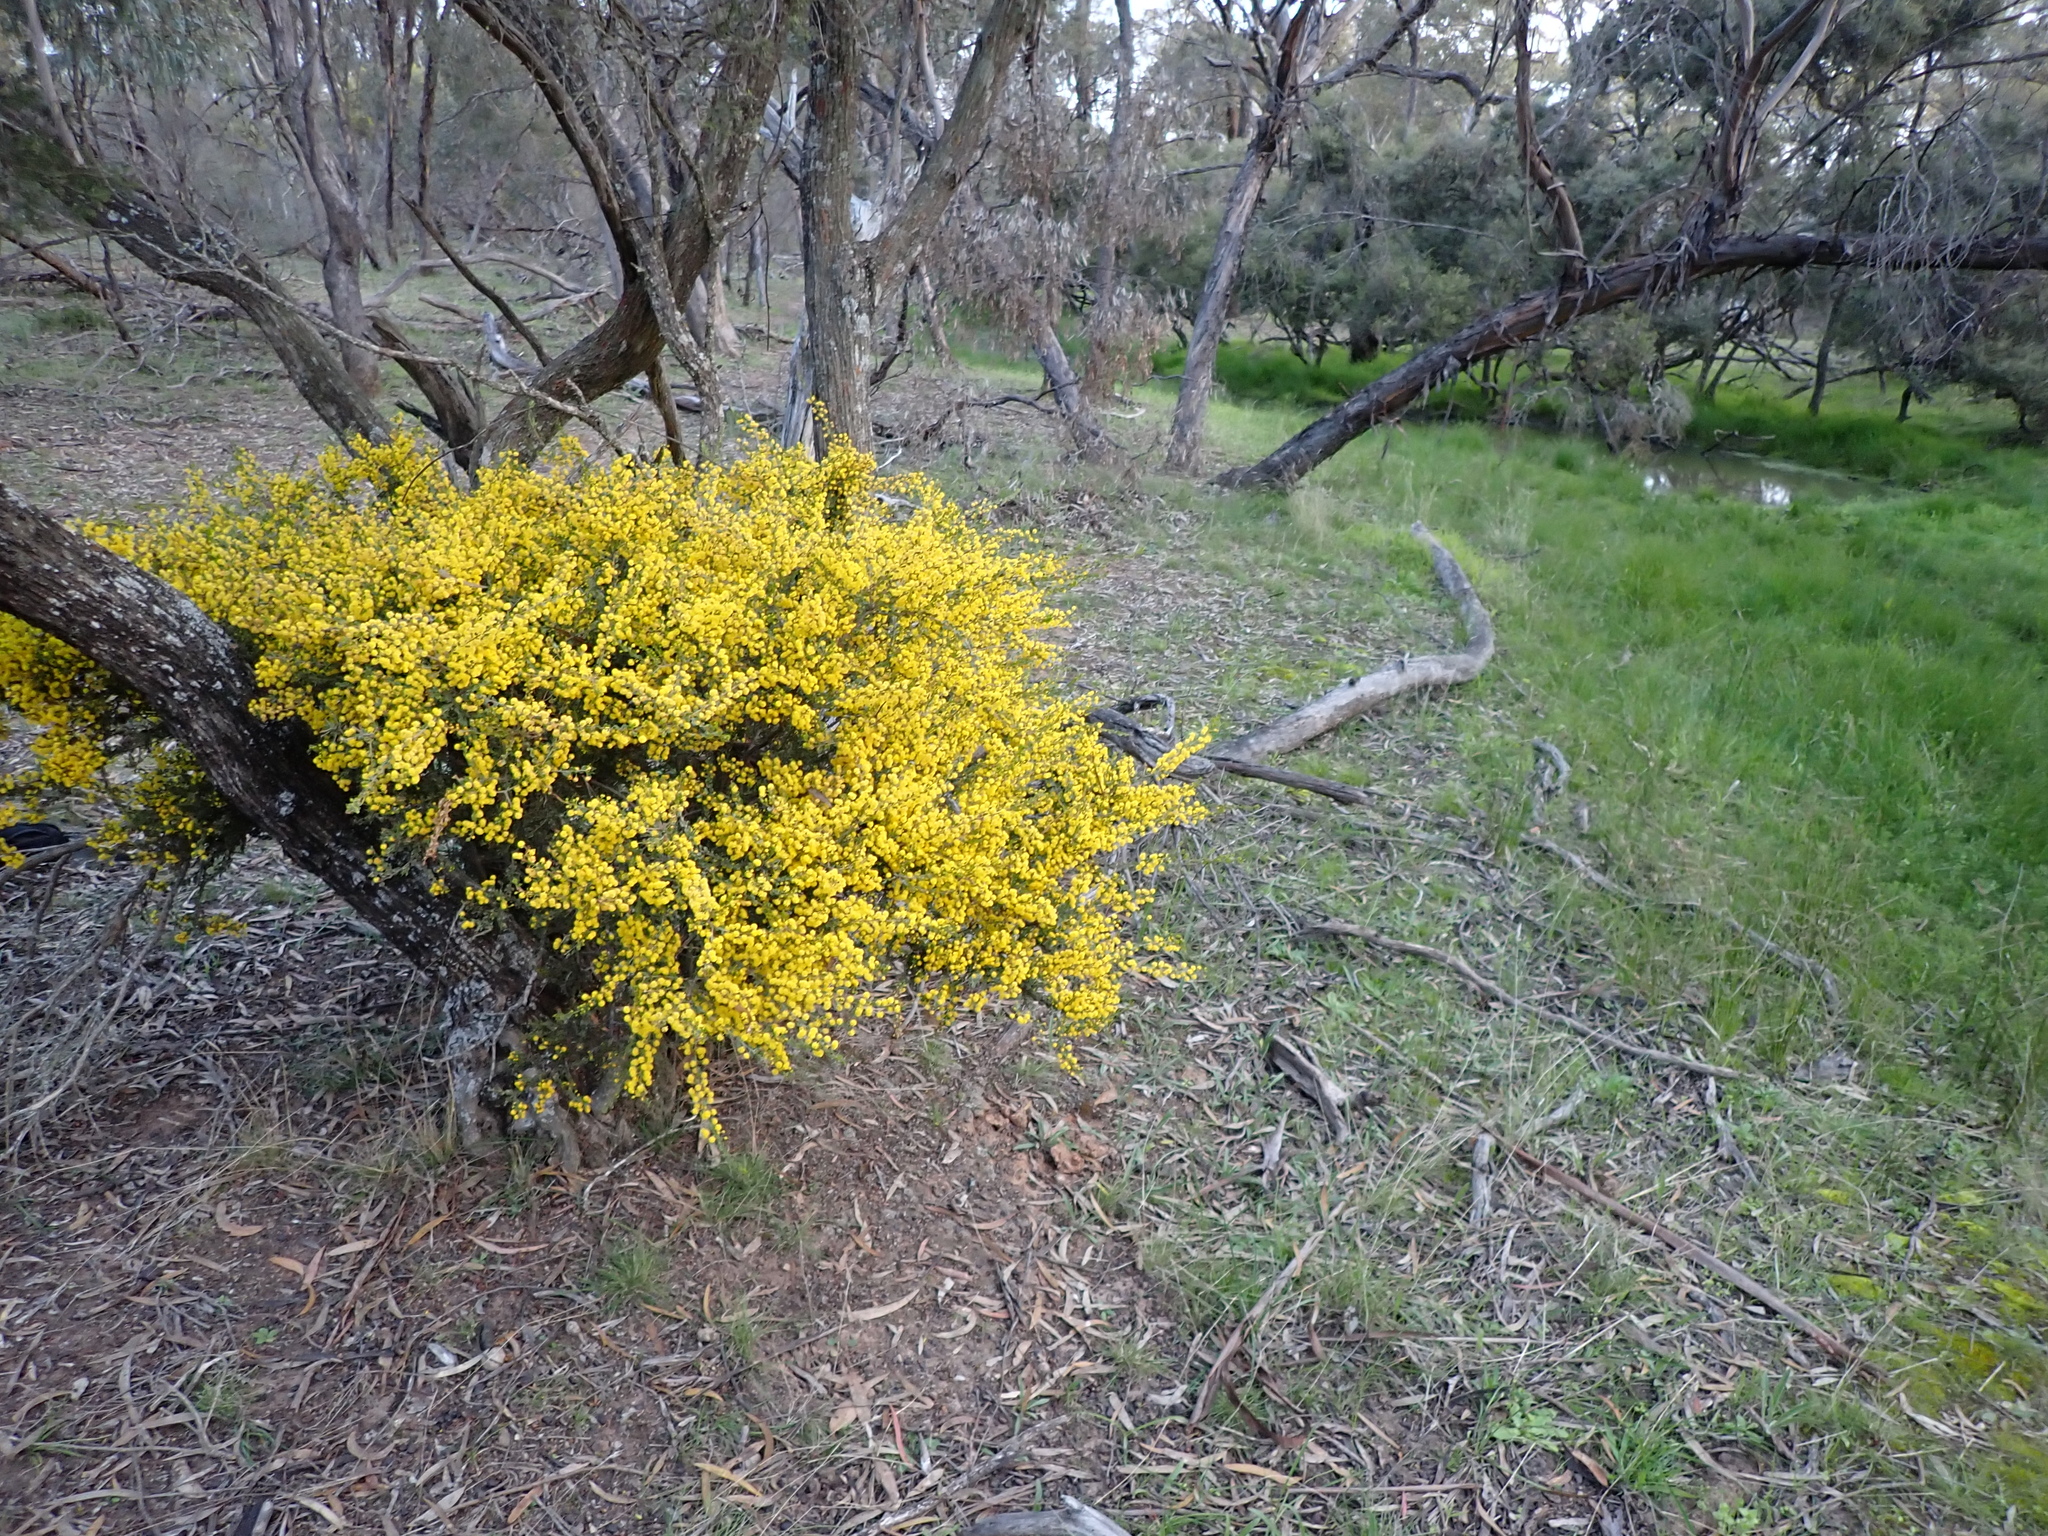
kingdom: Plantae
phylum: Tracheophyta
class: Magnoliopsida
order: Fabales
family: Fabaceae
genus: Acacia
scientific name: Acacia glandulicarpa
